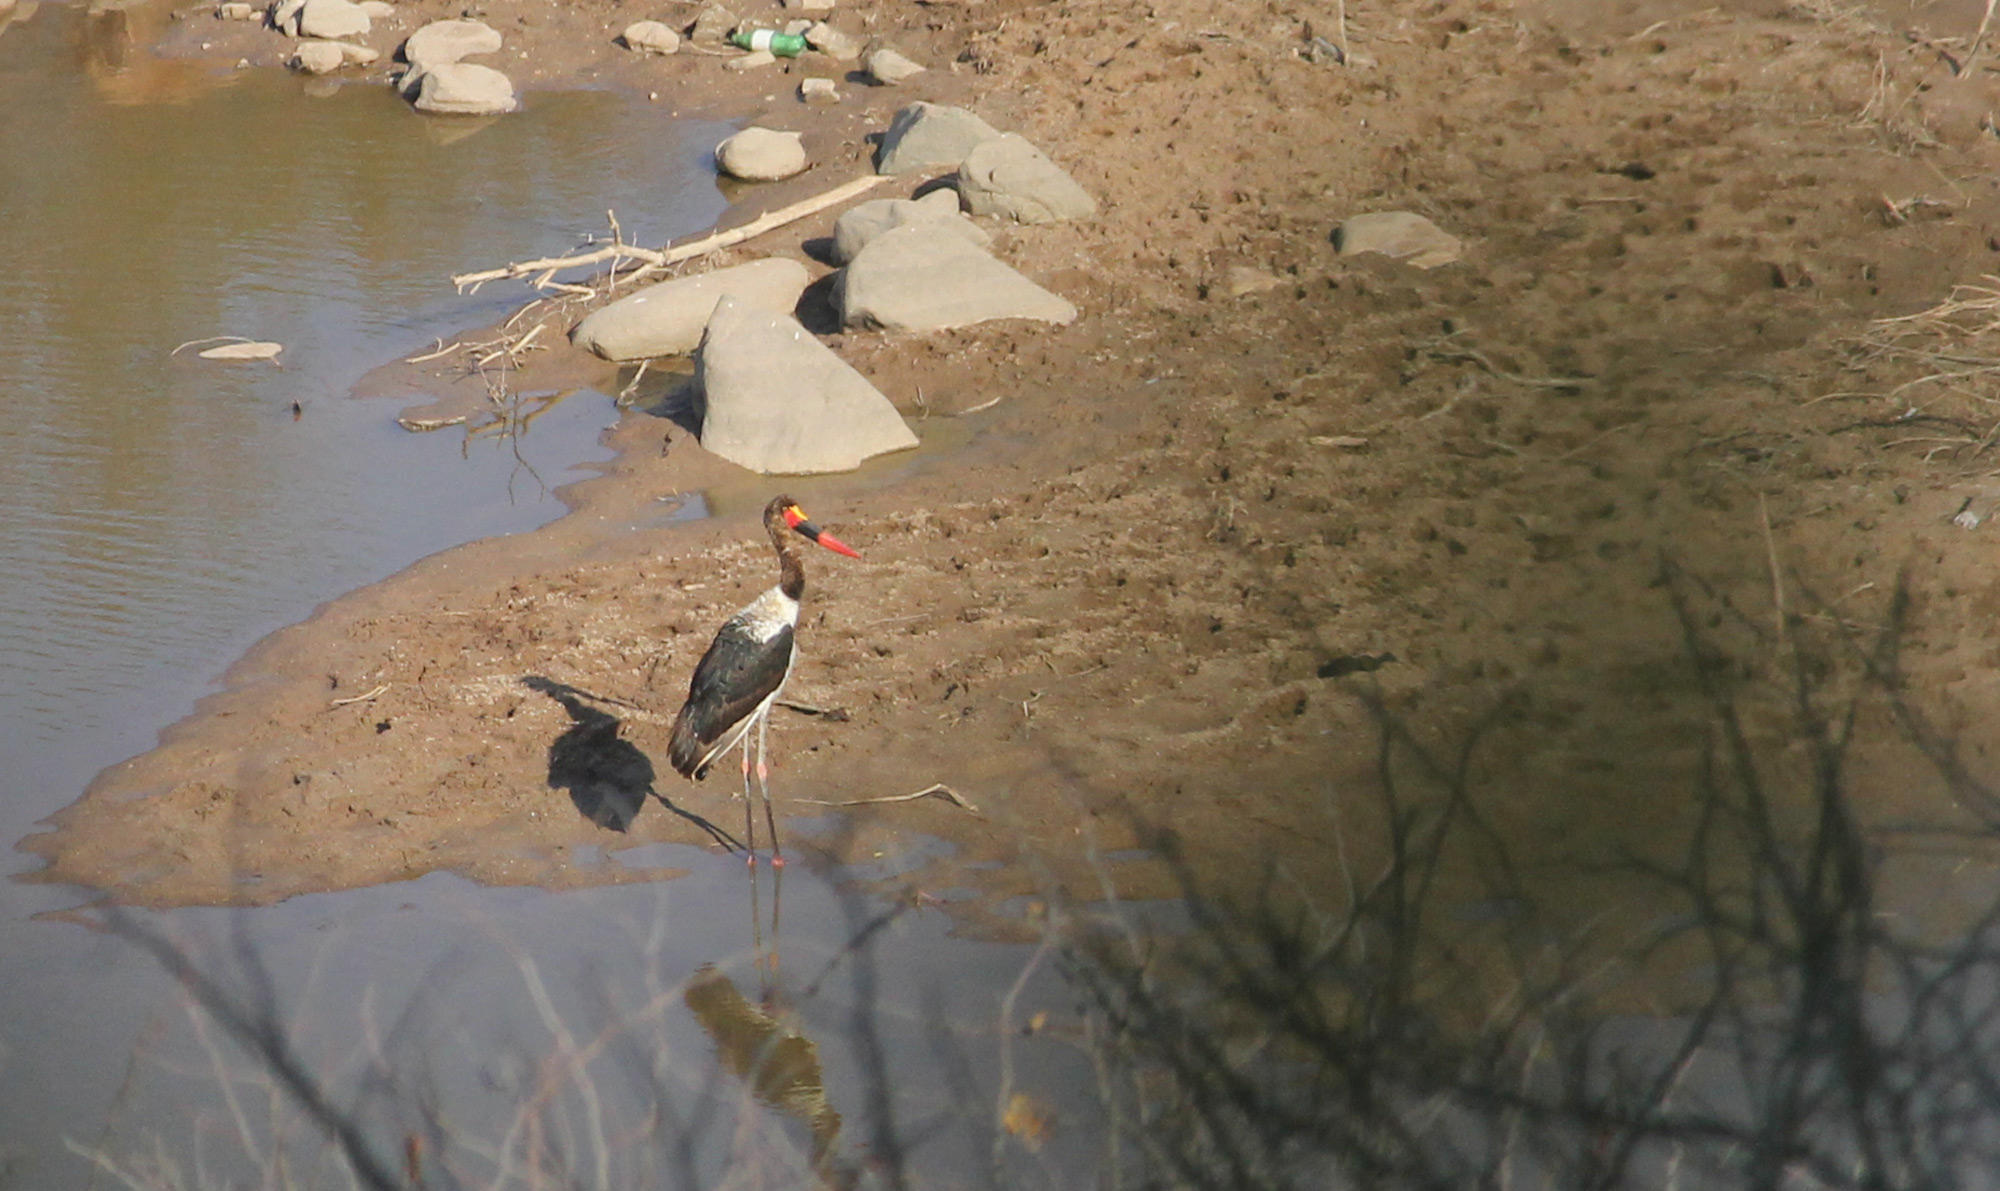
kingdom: Animalia
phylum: Chordata
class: Aves
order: Ciconiiformes
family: Ciconiidae
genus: Ephippiorhynchus
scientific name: Ephippiorhynchus senegalensis
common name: Saddle-billed stork
